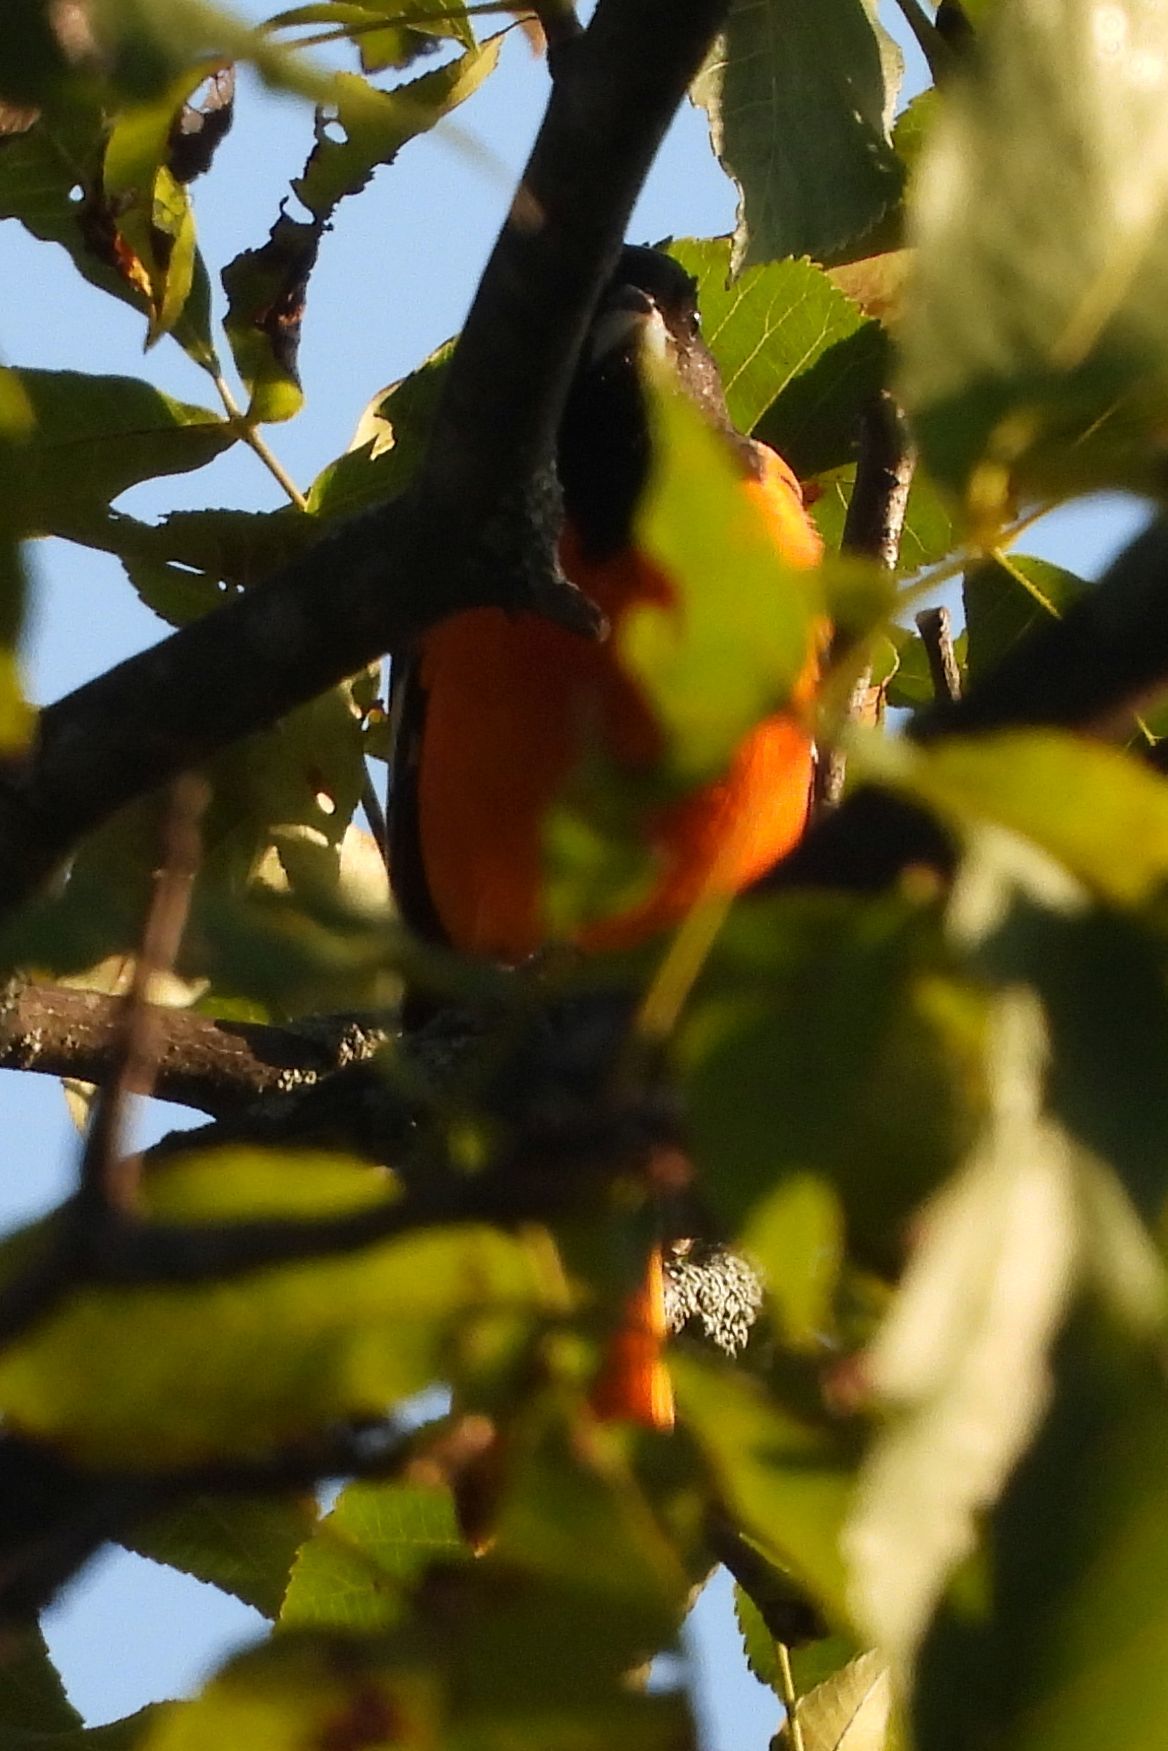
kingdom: Animalia
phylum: Chordata
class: Aves
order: Passeriformes
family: Icteridae
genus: Icterus
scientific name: Icterus galbula
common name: Baltimore oriole
